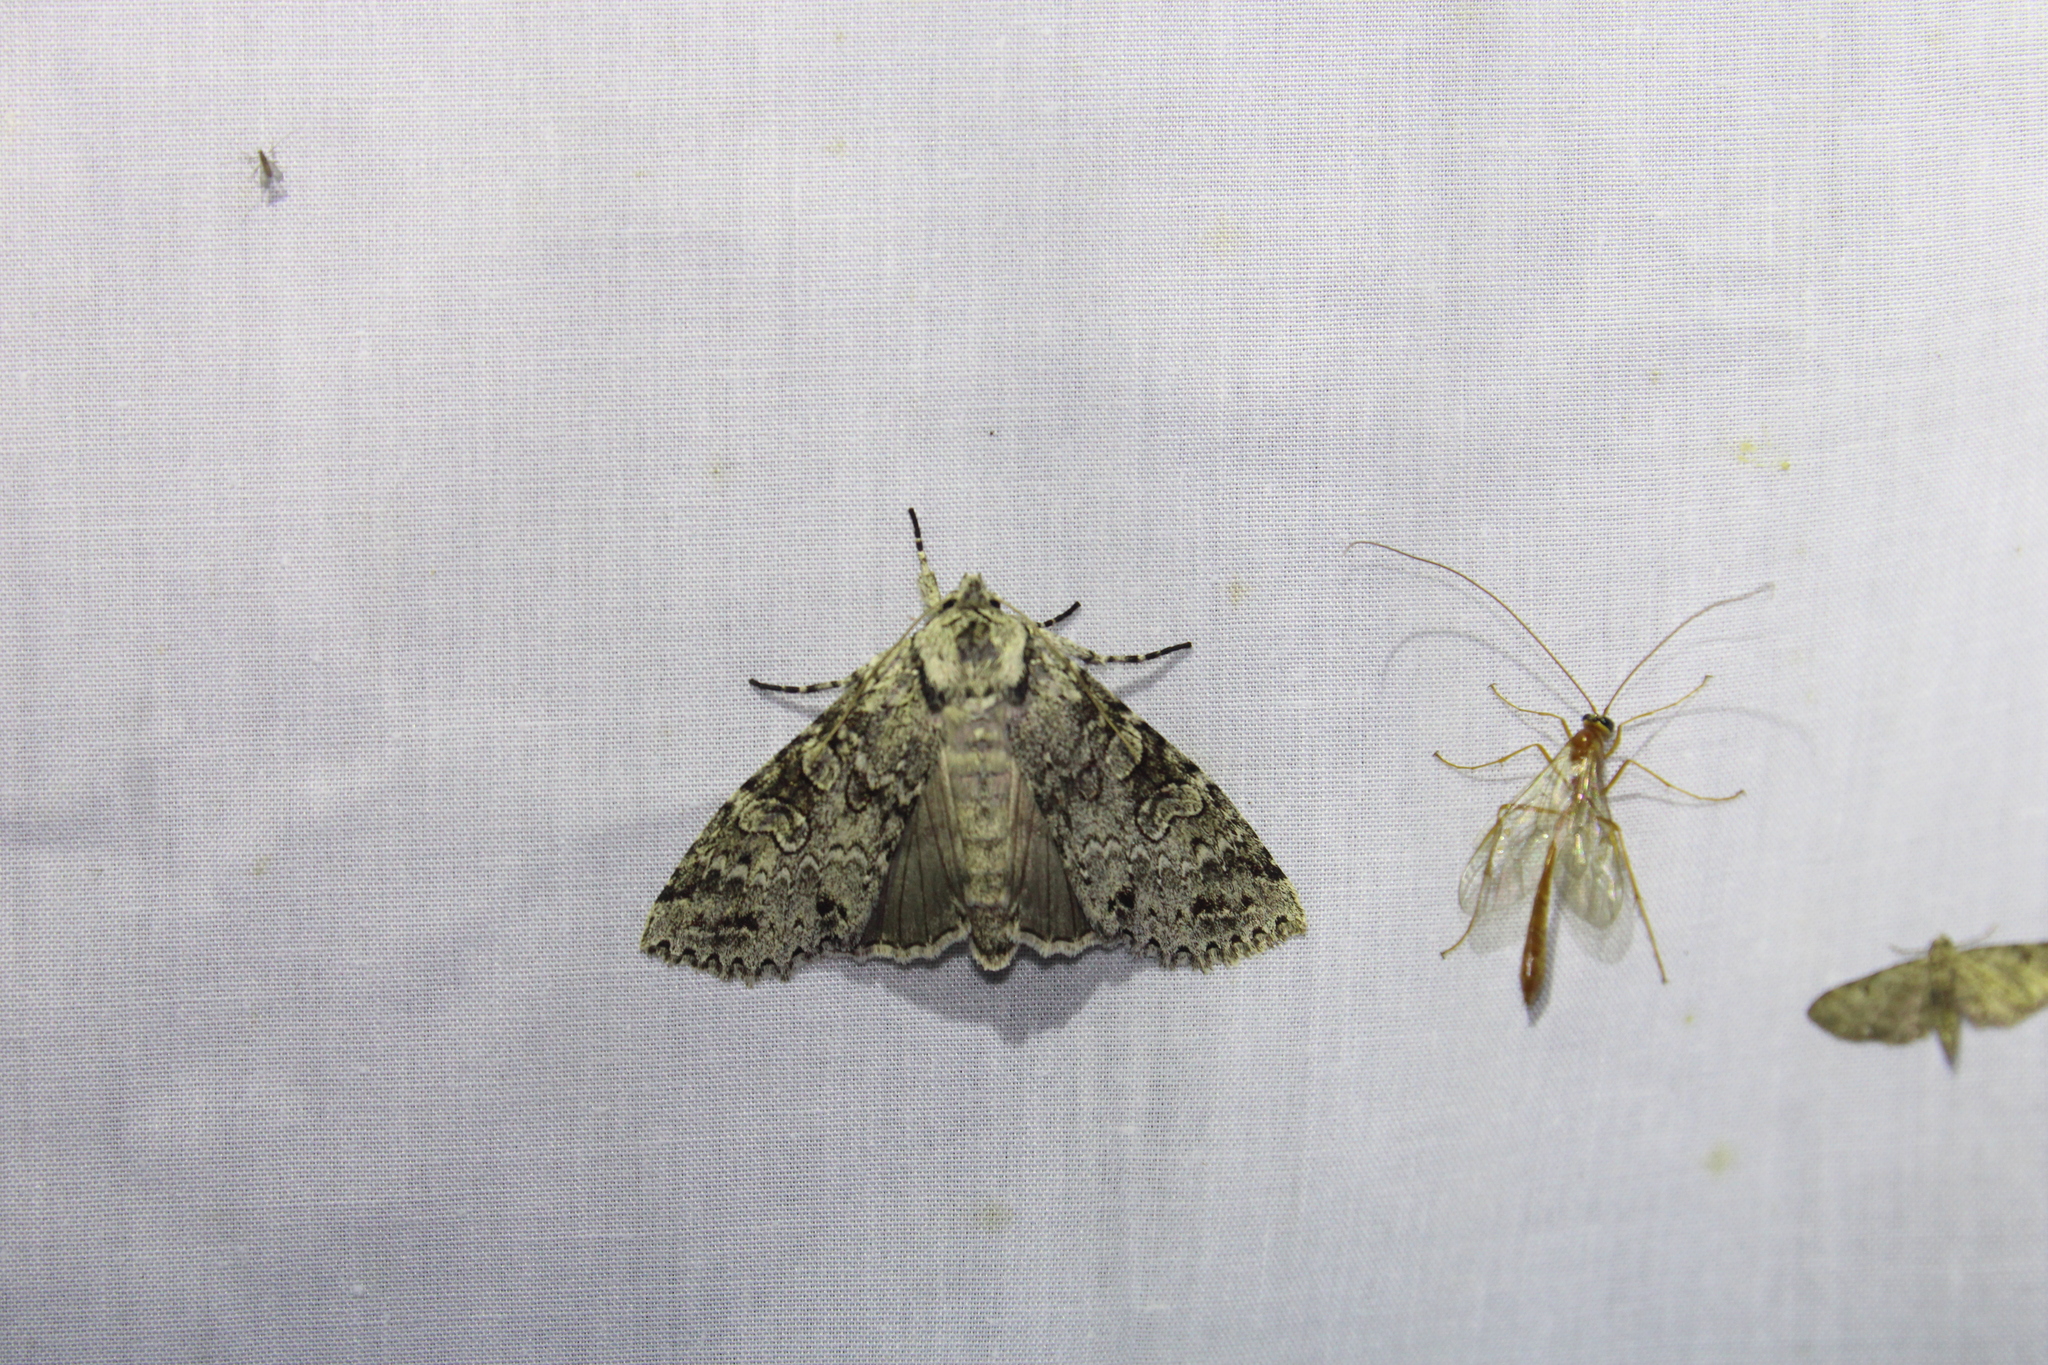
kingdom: Animalia
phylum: Arthropoda
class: Insecta
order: Lepidoptera
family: Noctuidae
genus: Polia
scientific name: Polia nimbosa
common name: Stormy arches
